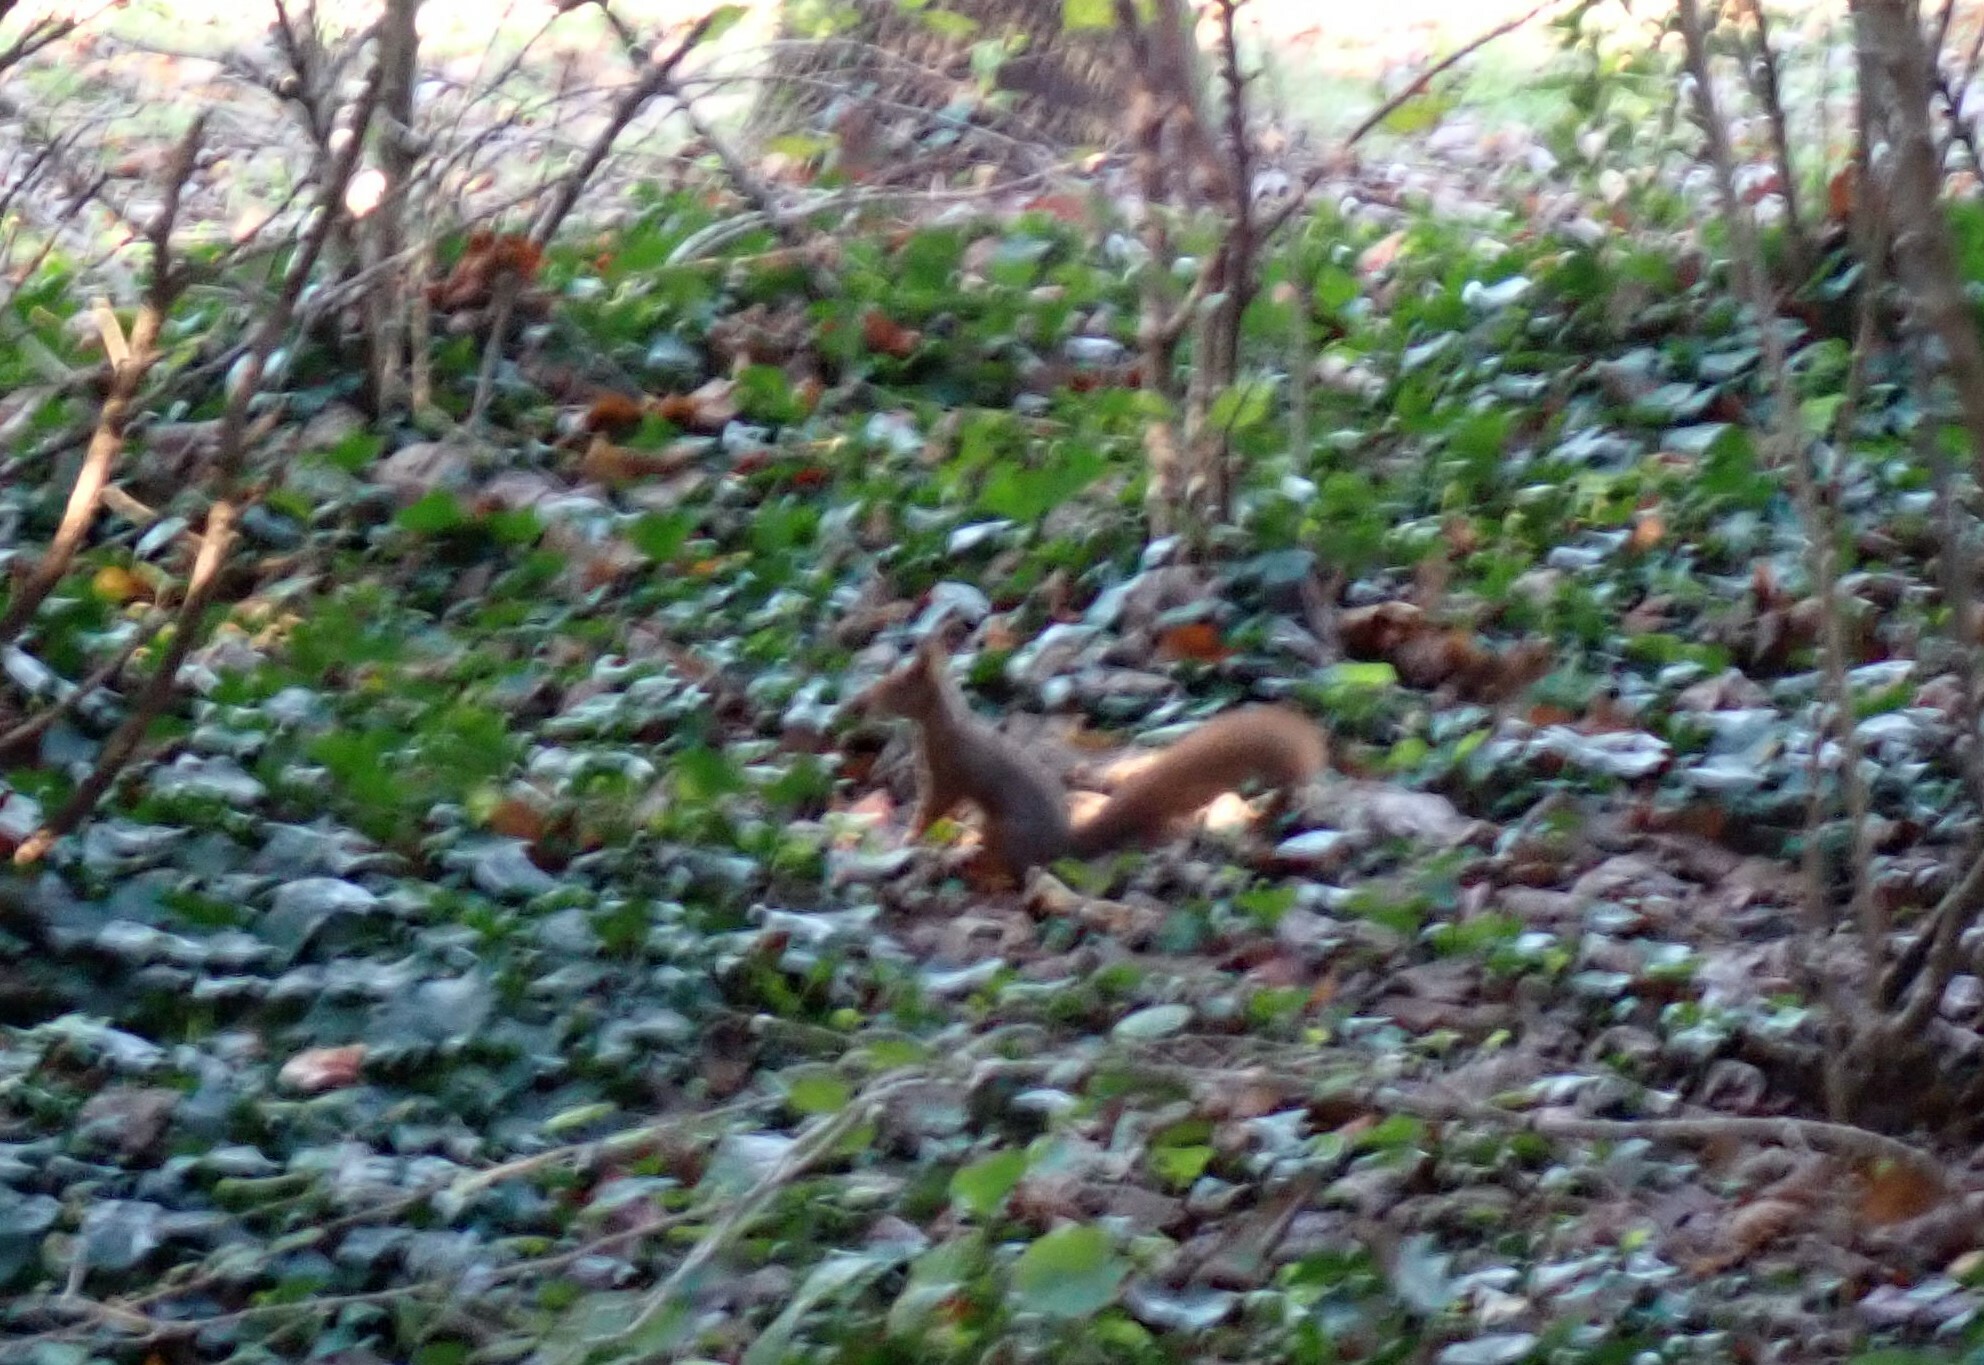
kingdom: Animalia
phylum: Chordata
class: Mammalia
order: Rodentia
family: Sciuridae
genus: Sciurus
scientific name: Sciurus vulgaris
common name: Eurasian red squirrel
